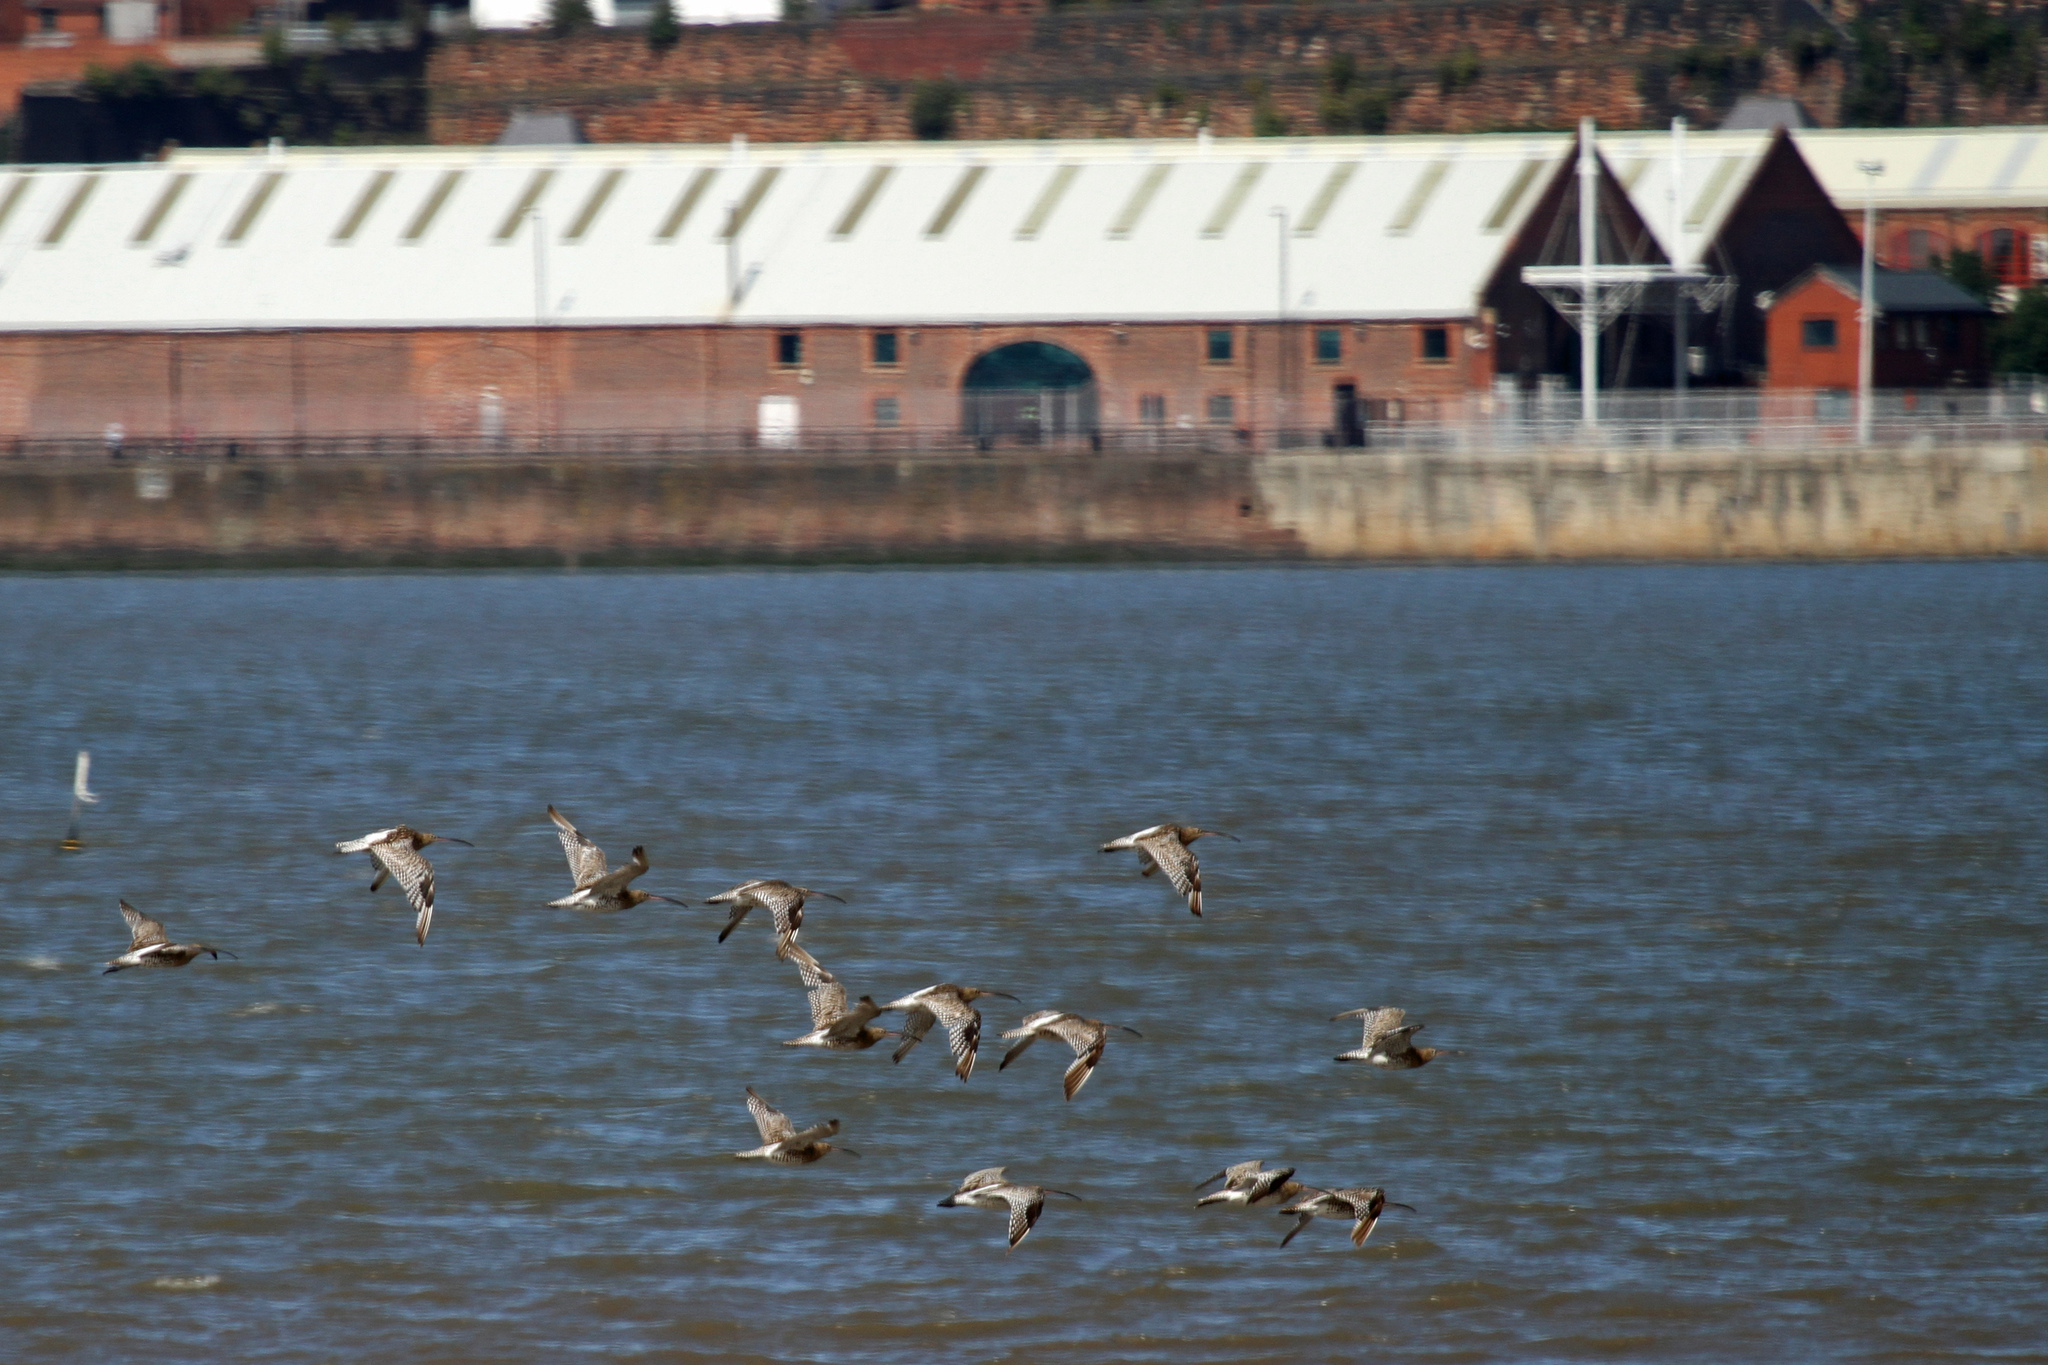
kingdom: Animalia
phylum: Chordata
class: Aves
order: Charadriiformes
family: Scolopacidae
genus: Numenius
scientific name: Numenius arquata
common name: Eurasian curlew
